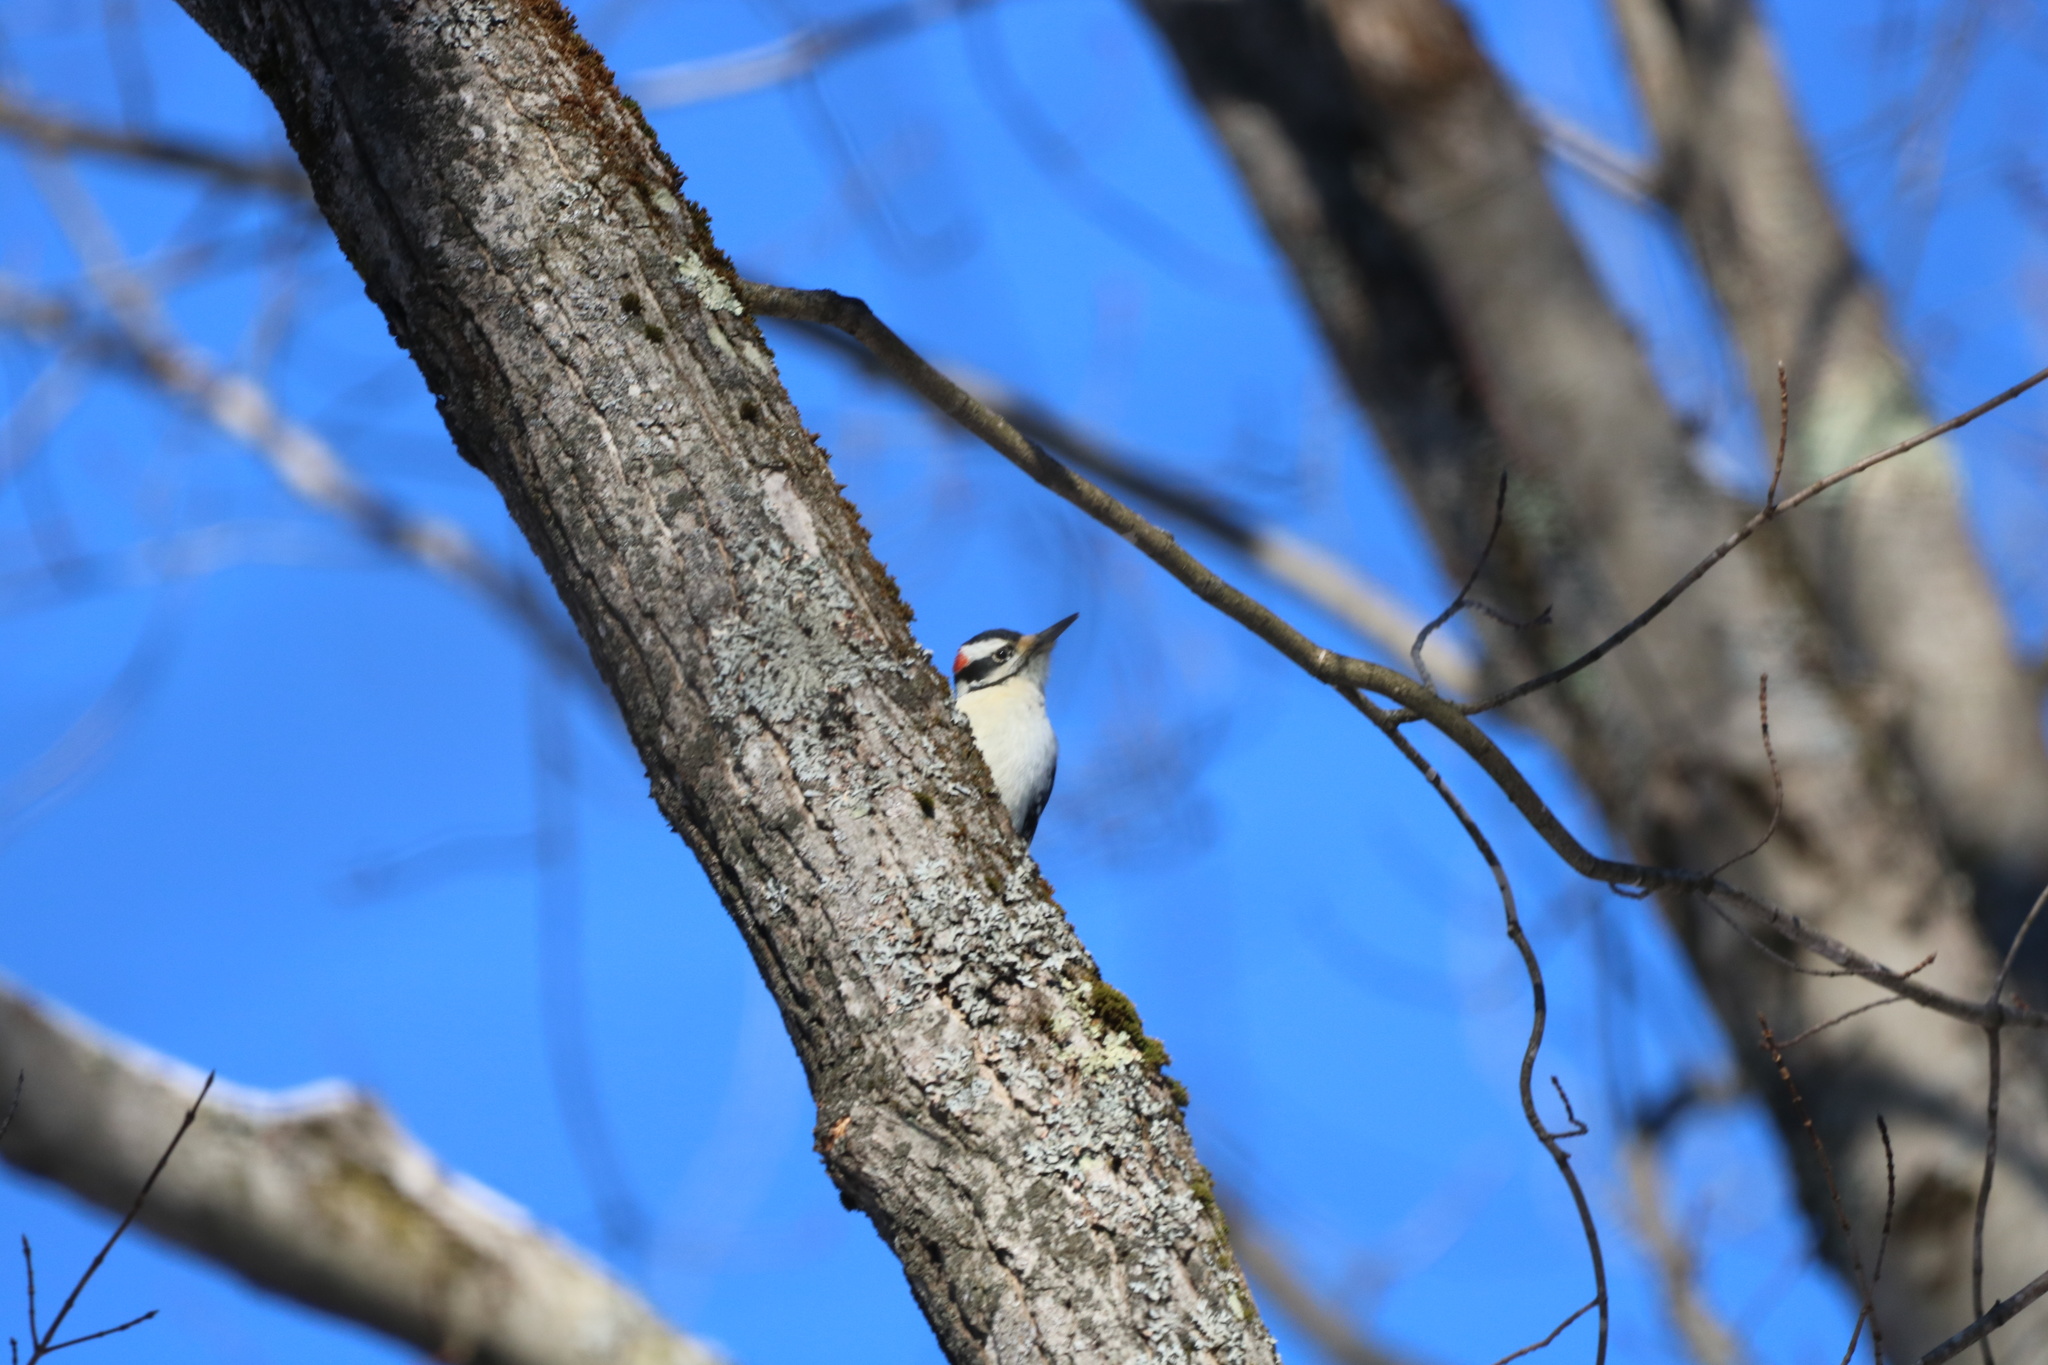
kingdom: Animalia
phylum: Chordata
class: Aves
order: Piciformes
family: Picidae
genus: Leuconotopicus
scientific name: Leuconotopicus villosus
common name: Hairy woodpecker
